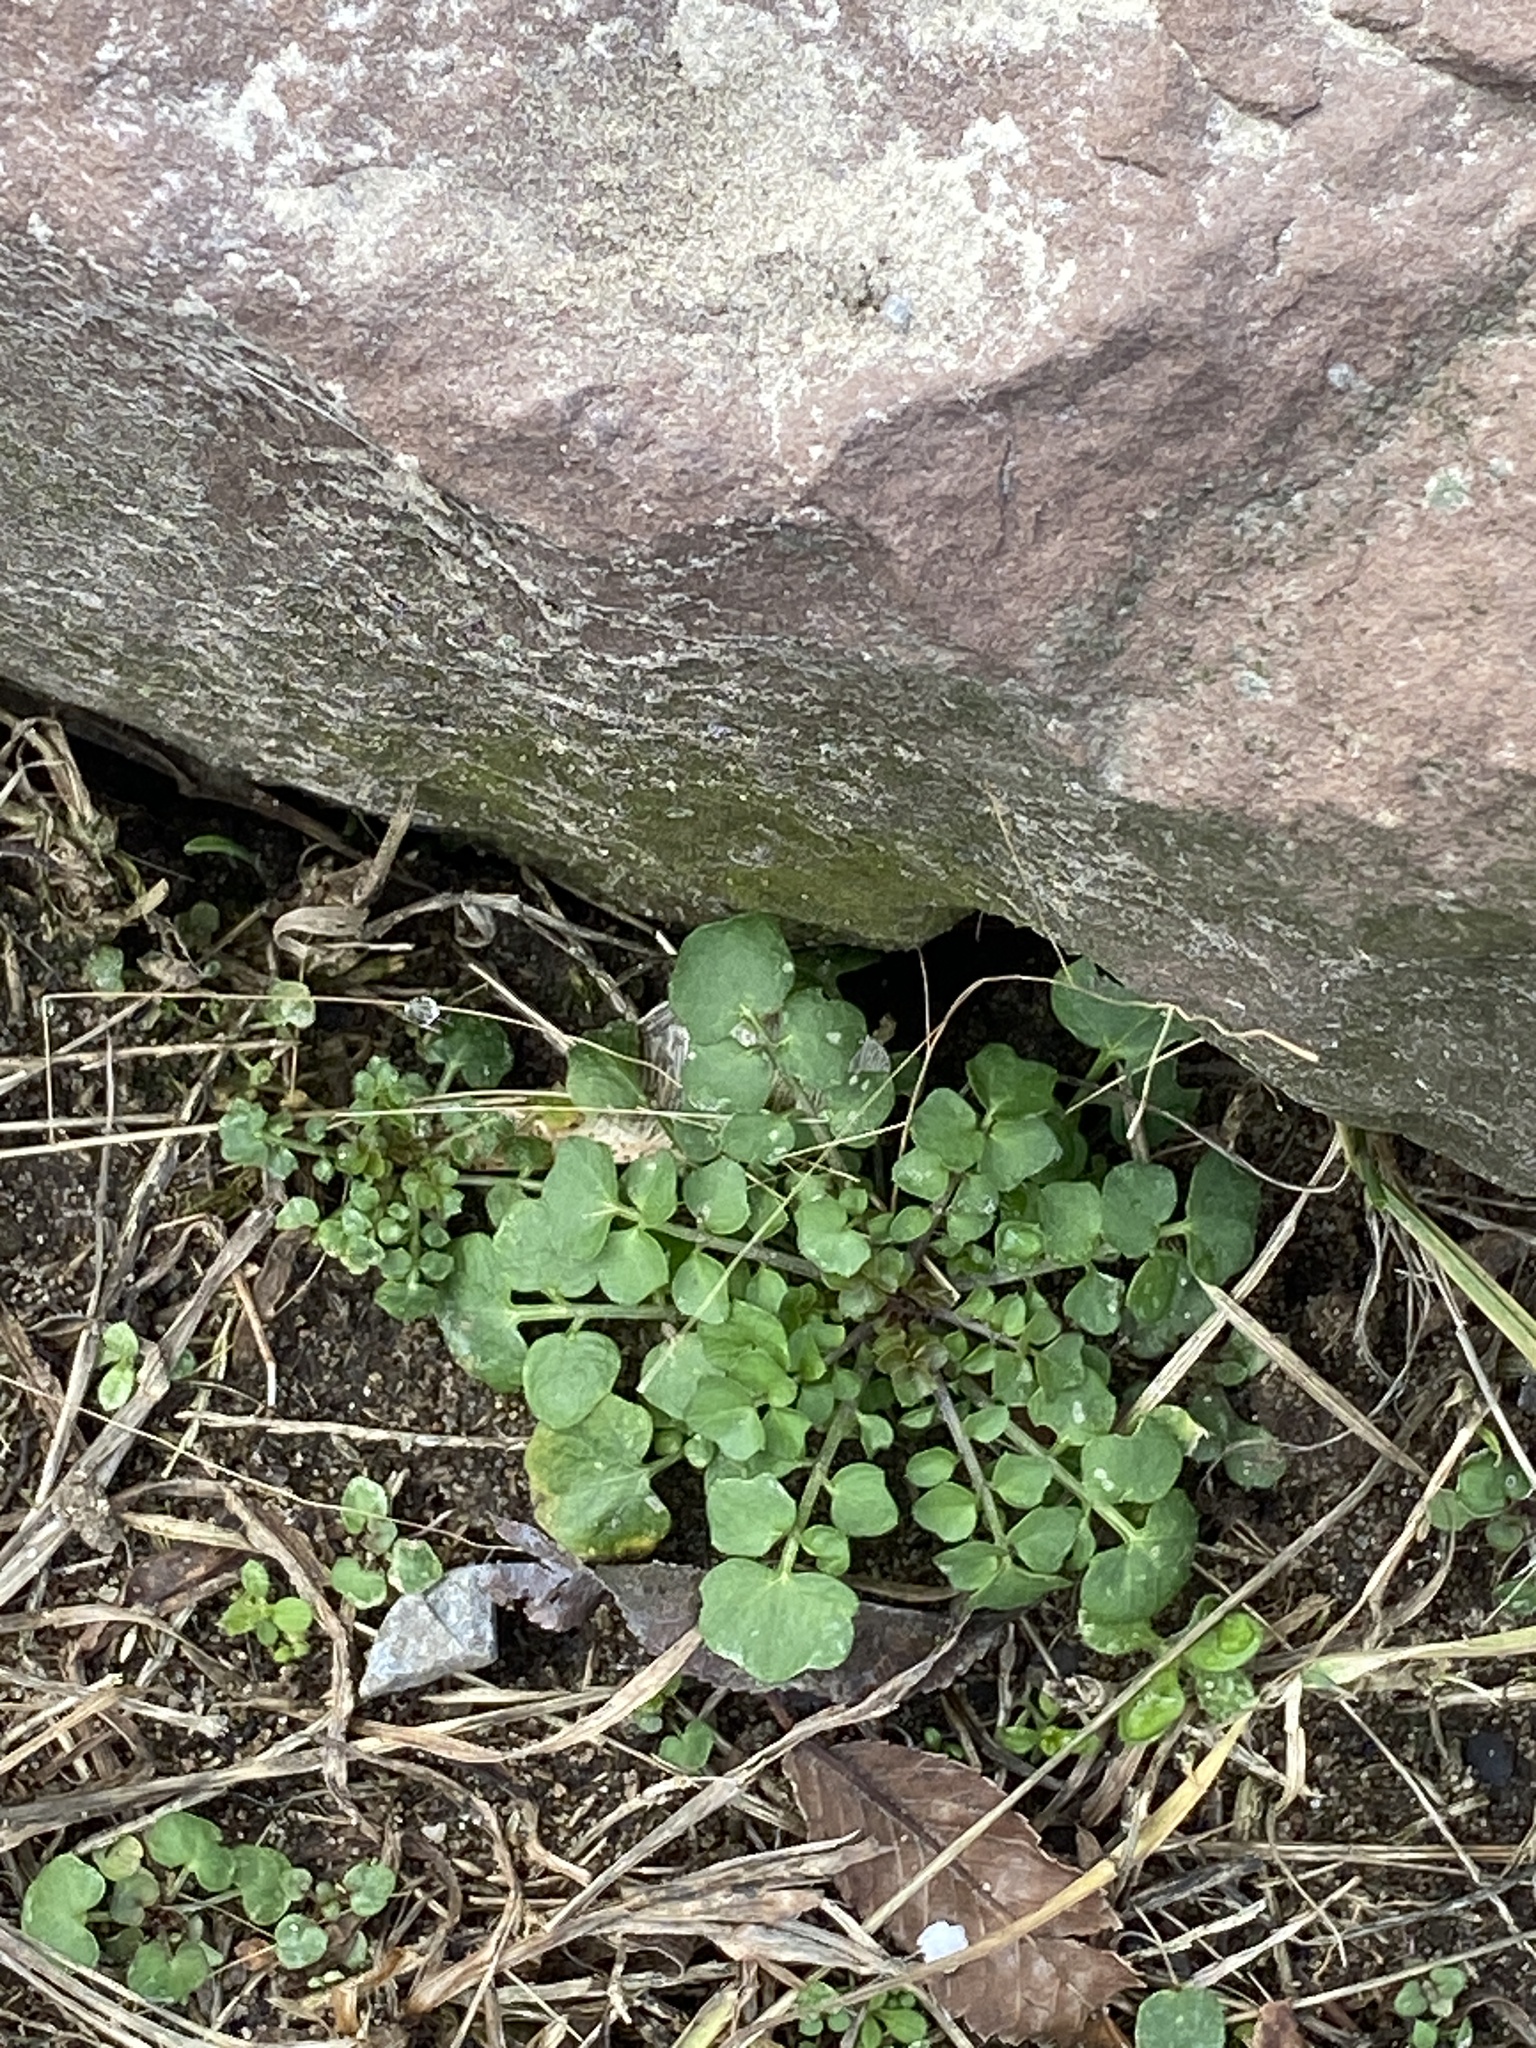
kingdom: Plantae
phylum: Tracheophyta
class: Magnoliopsida
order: Brassicales
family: Brassicaceae
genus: Cardamine
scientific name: Cardamine hirsuta
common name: Hairy bittercress
